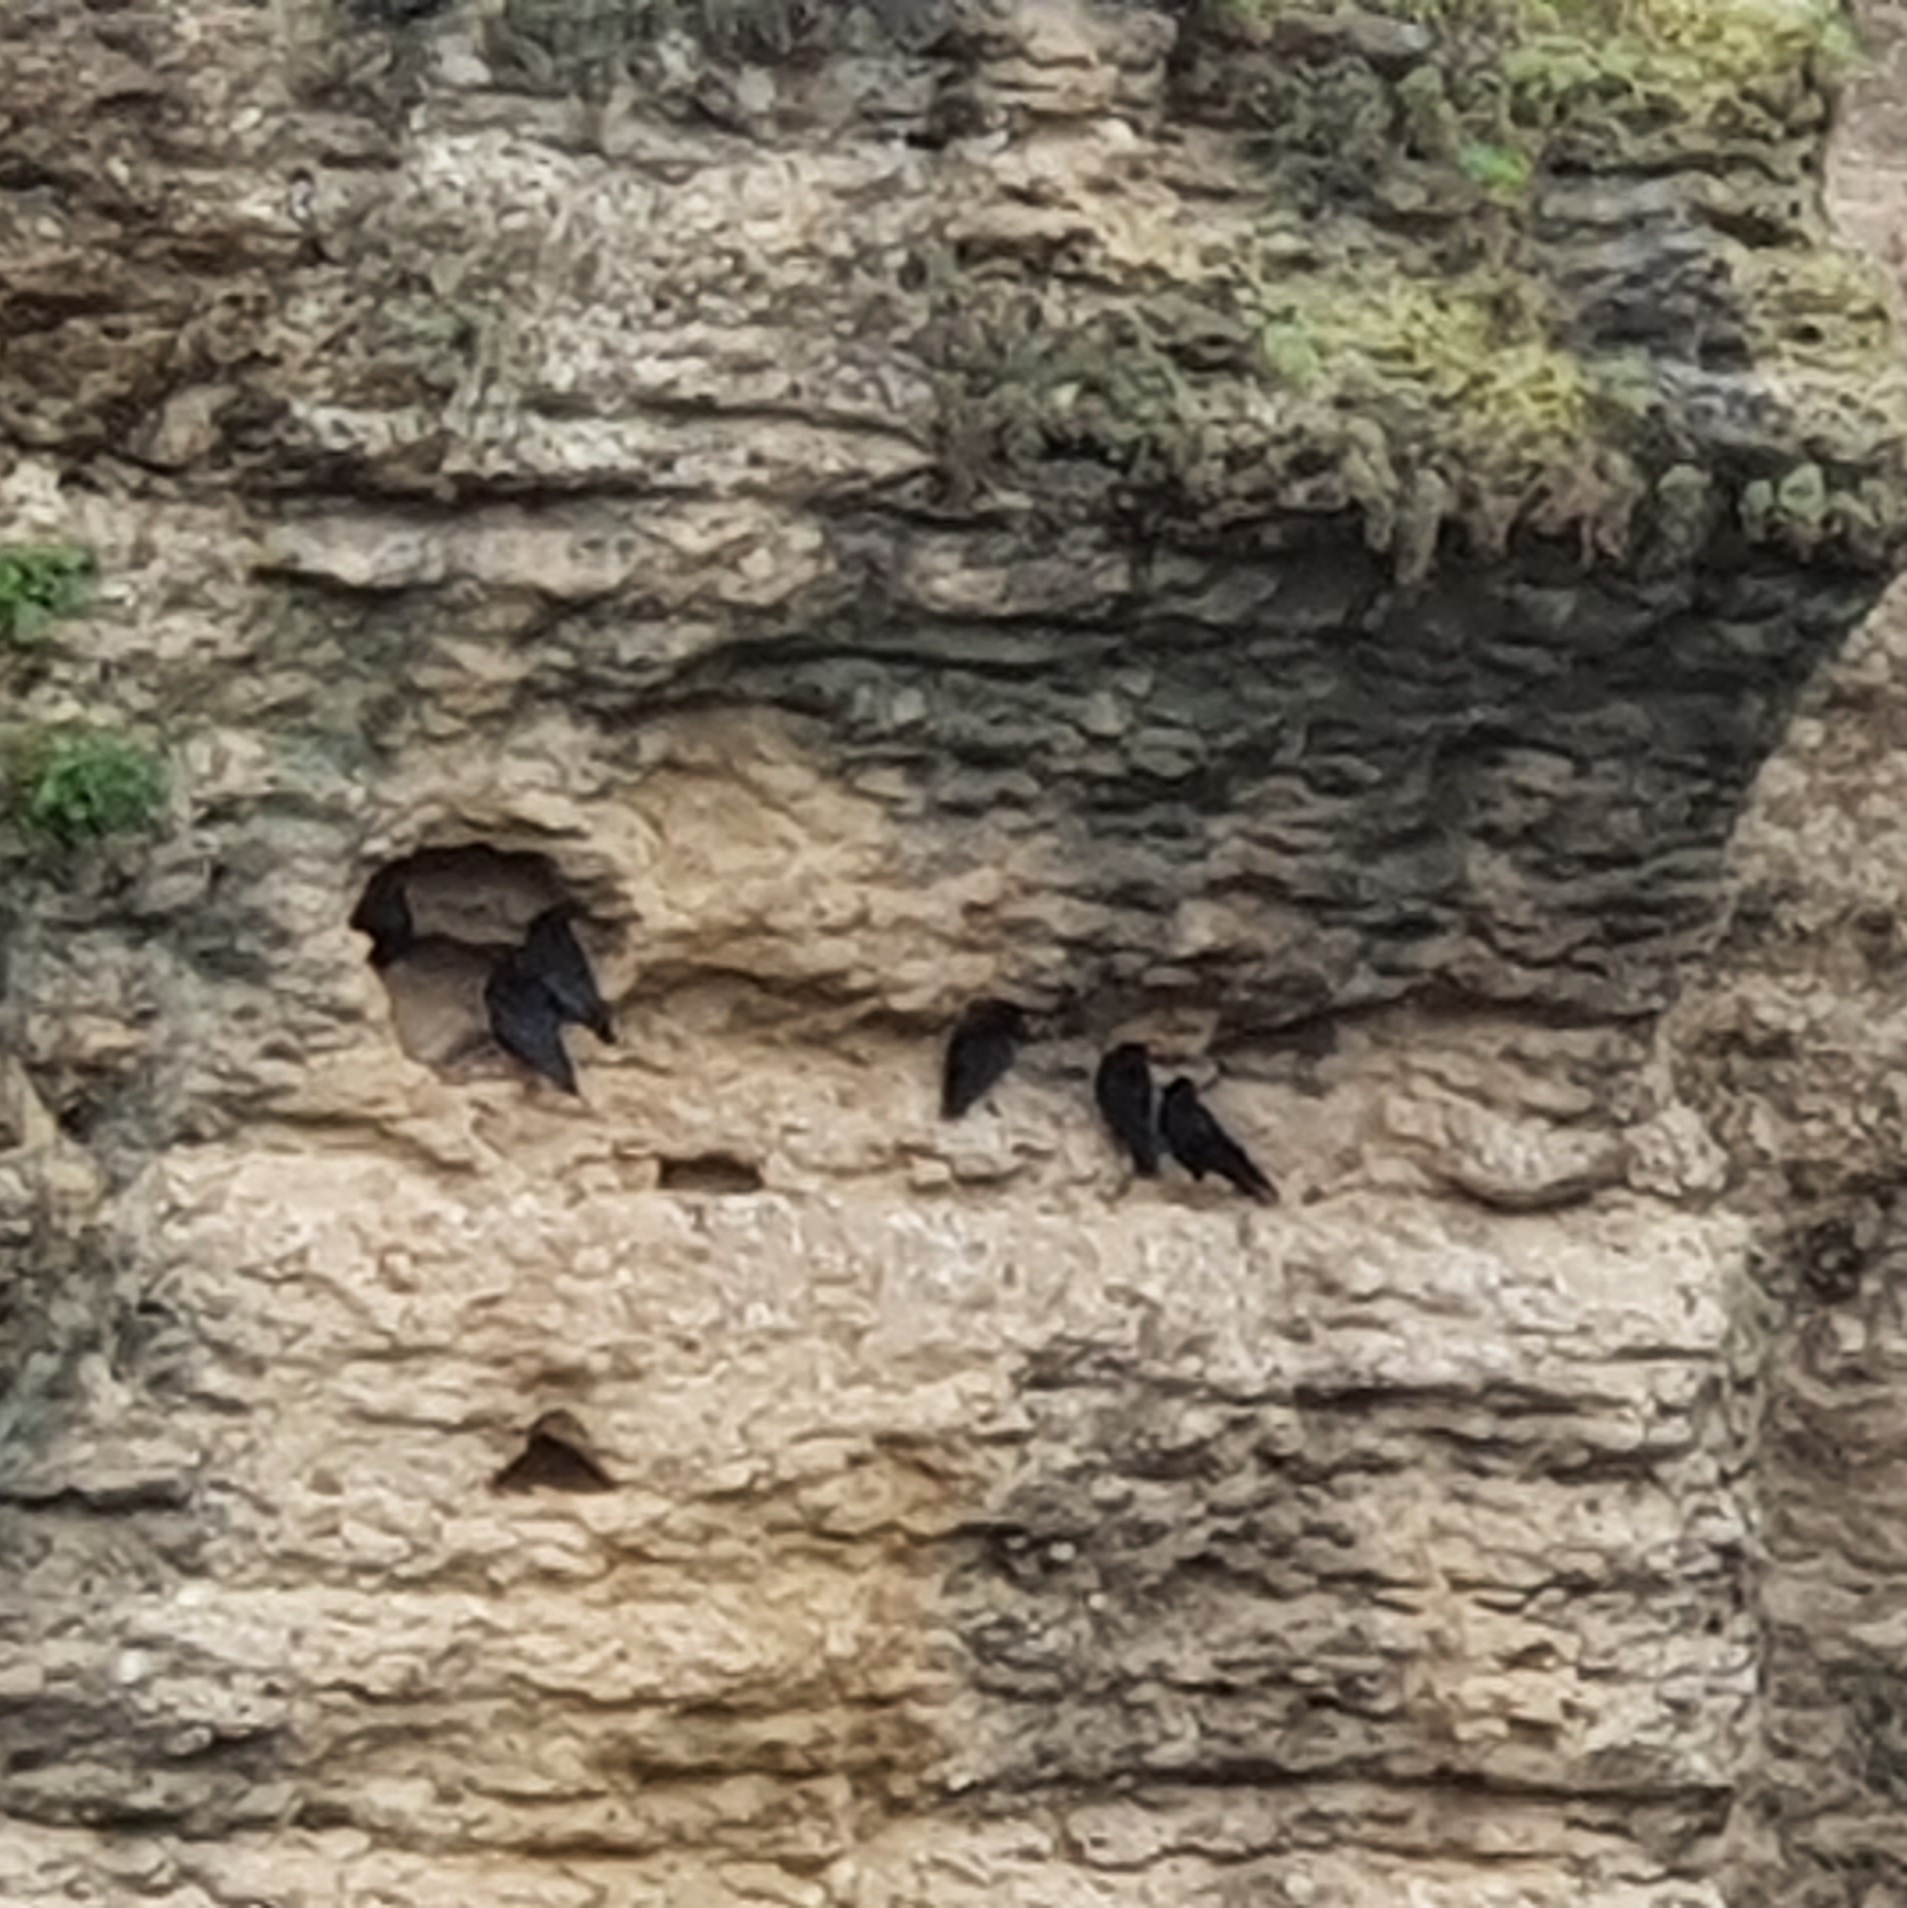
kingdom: Animalia
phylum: Chordata
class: Aves
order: Passeriformes
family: Corvidae
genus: Pyrrhocorax
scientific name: Pyrrhocorax pyrrhocorax
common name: Red-billed chough
